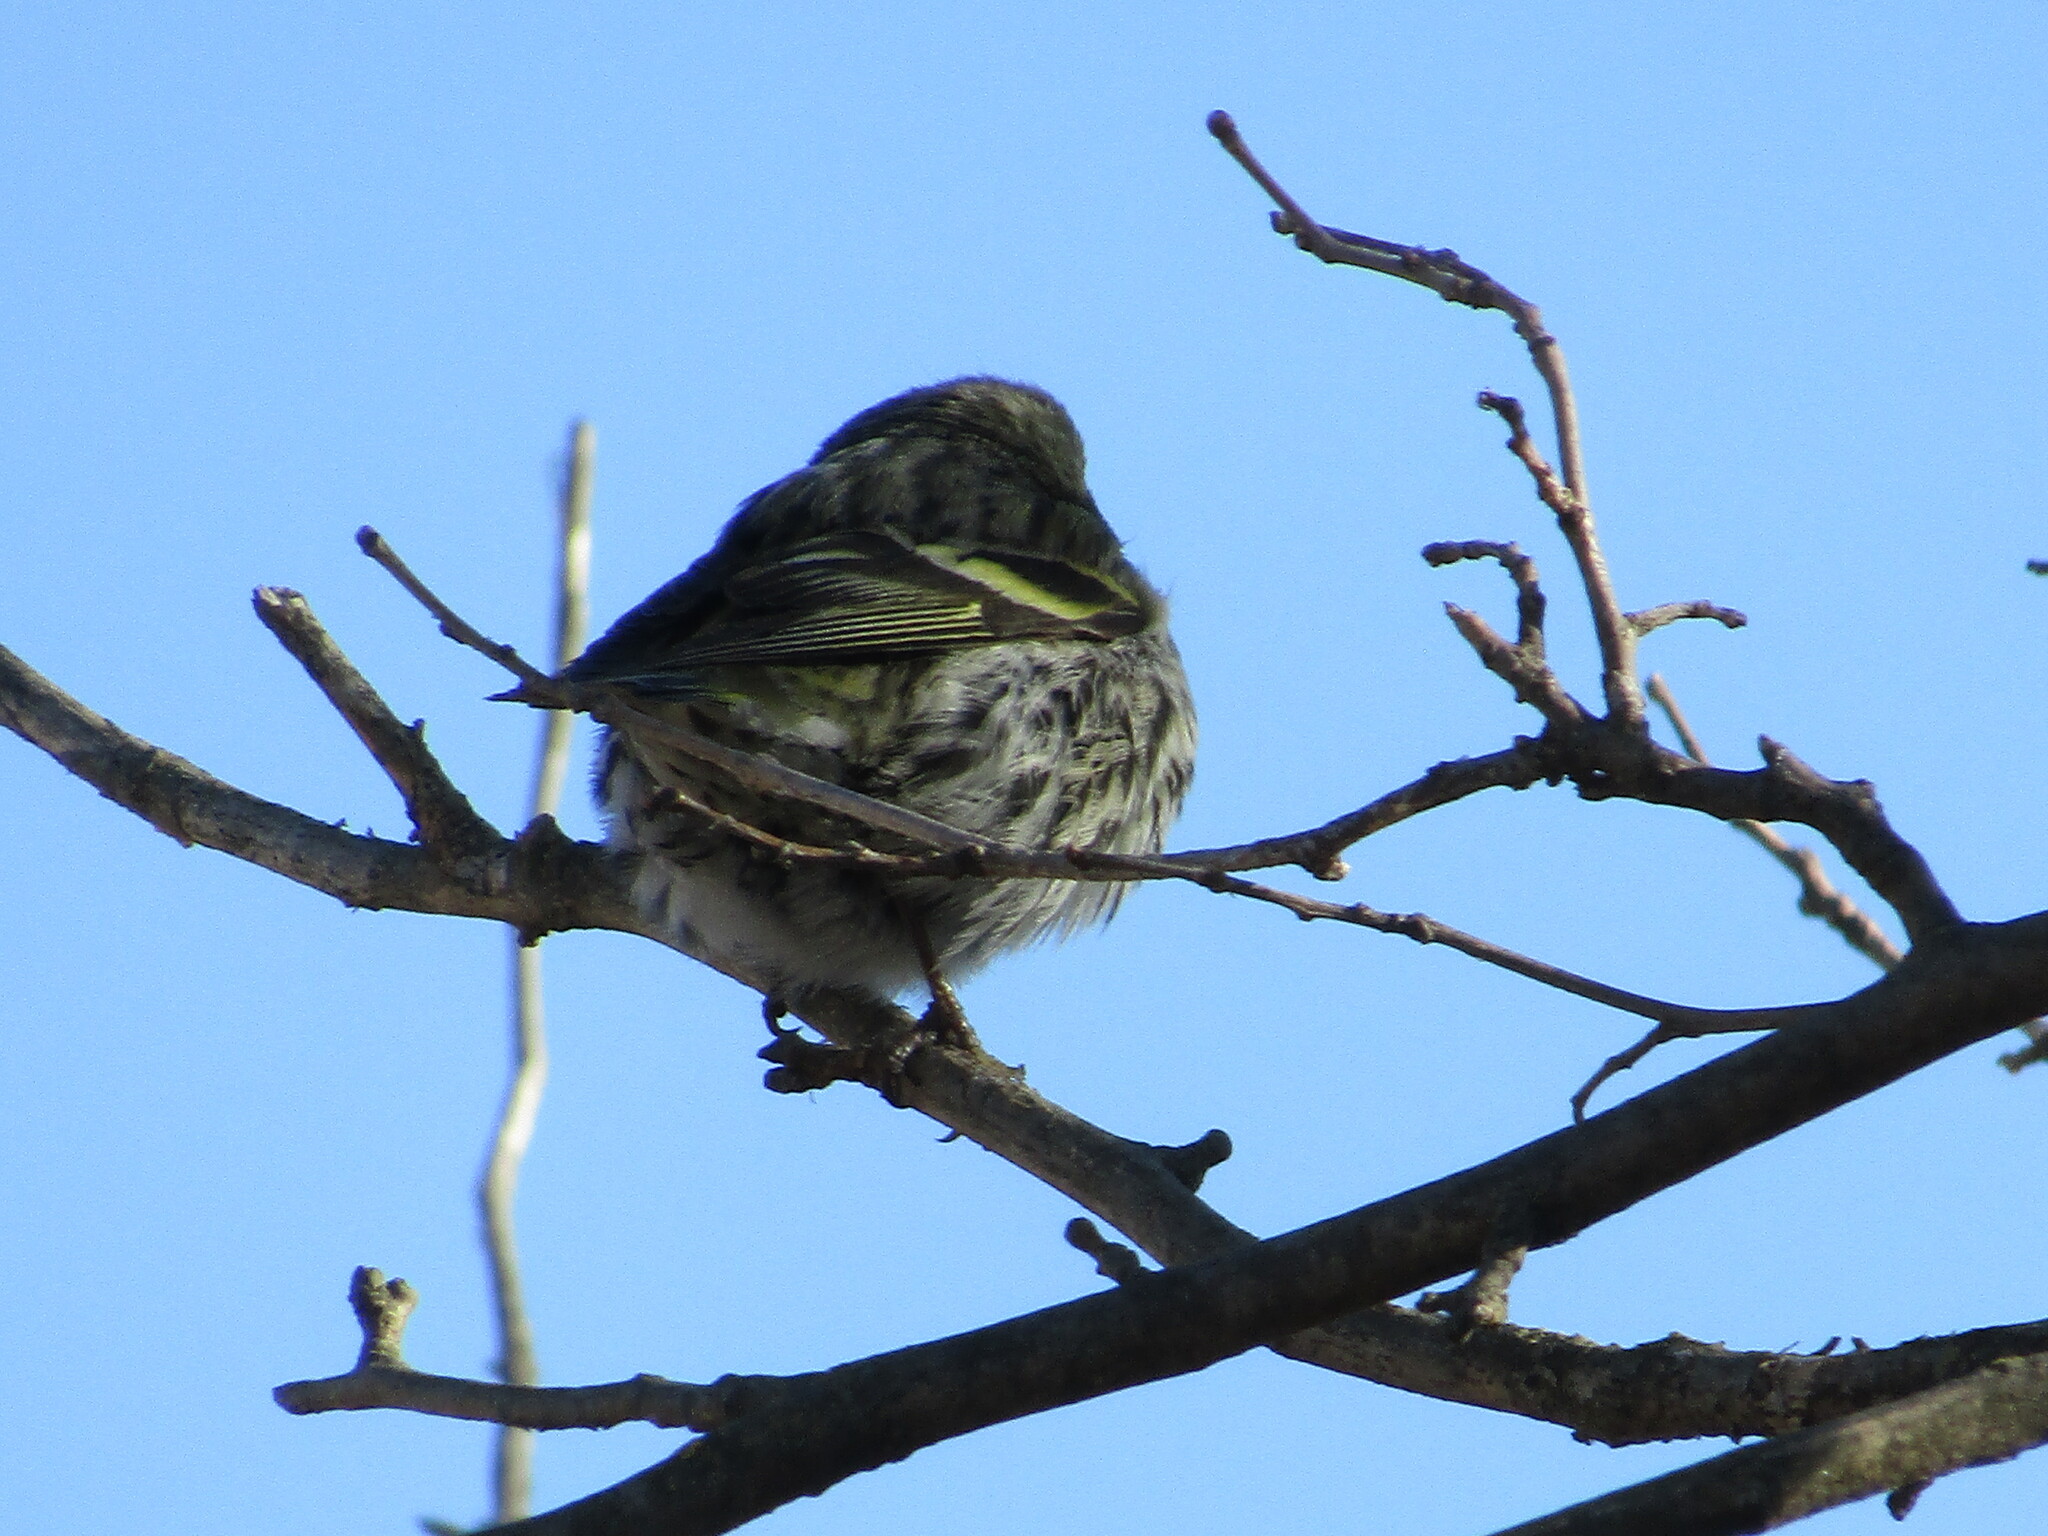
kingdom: Animalia
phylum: Chordata
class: Aves
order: Passeriformes
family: Fringillidae
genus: Spinus
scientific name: Spinus spinus
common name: Eurasian siskin
